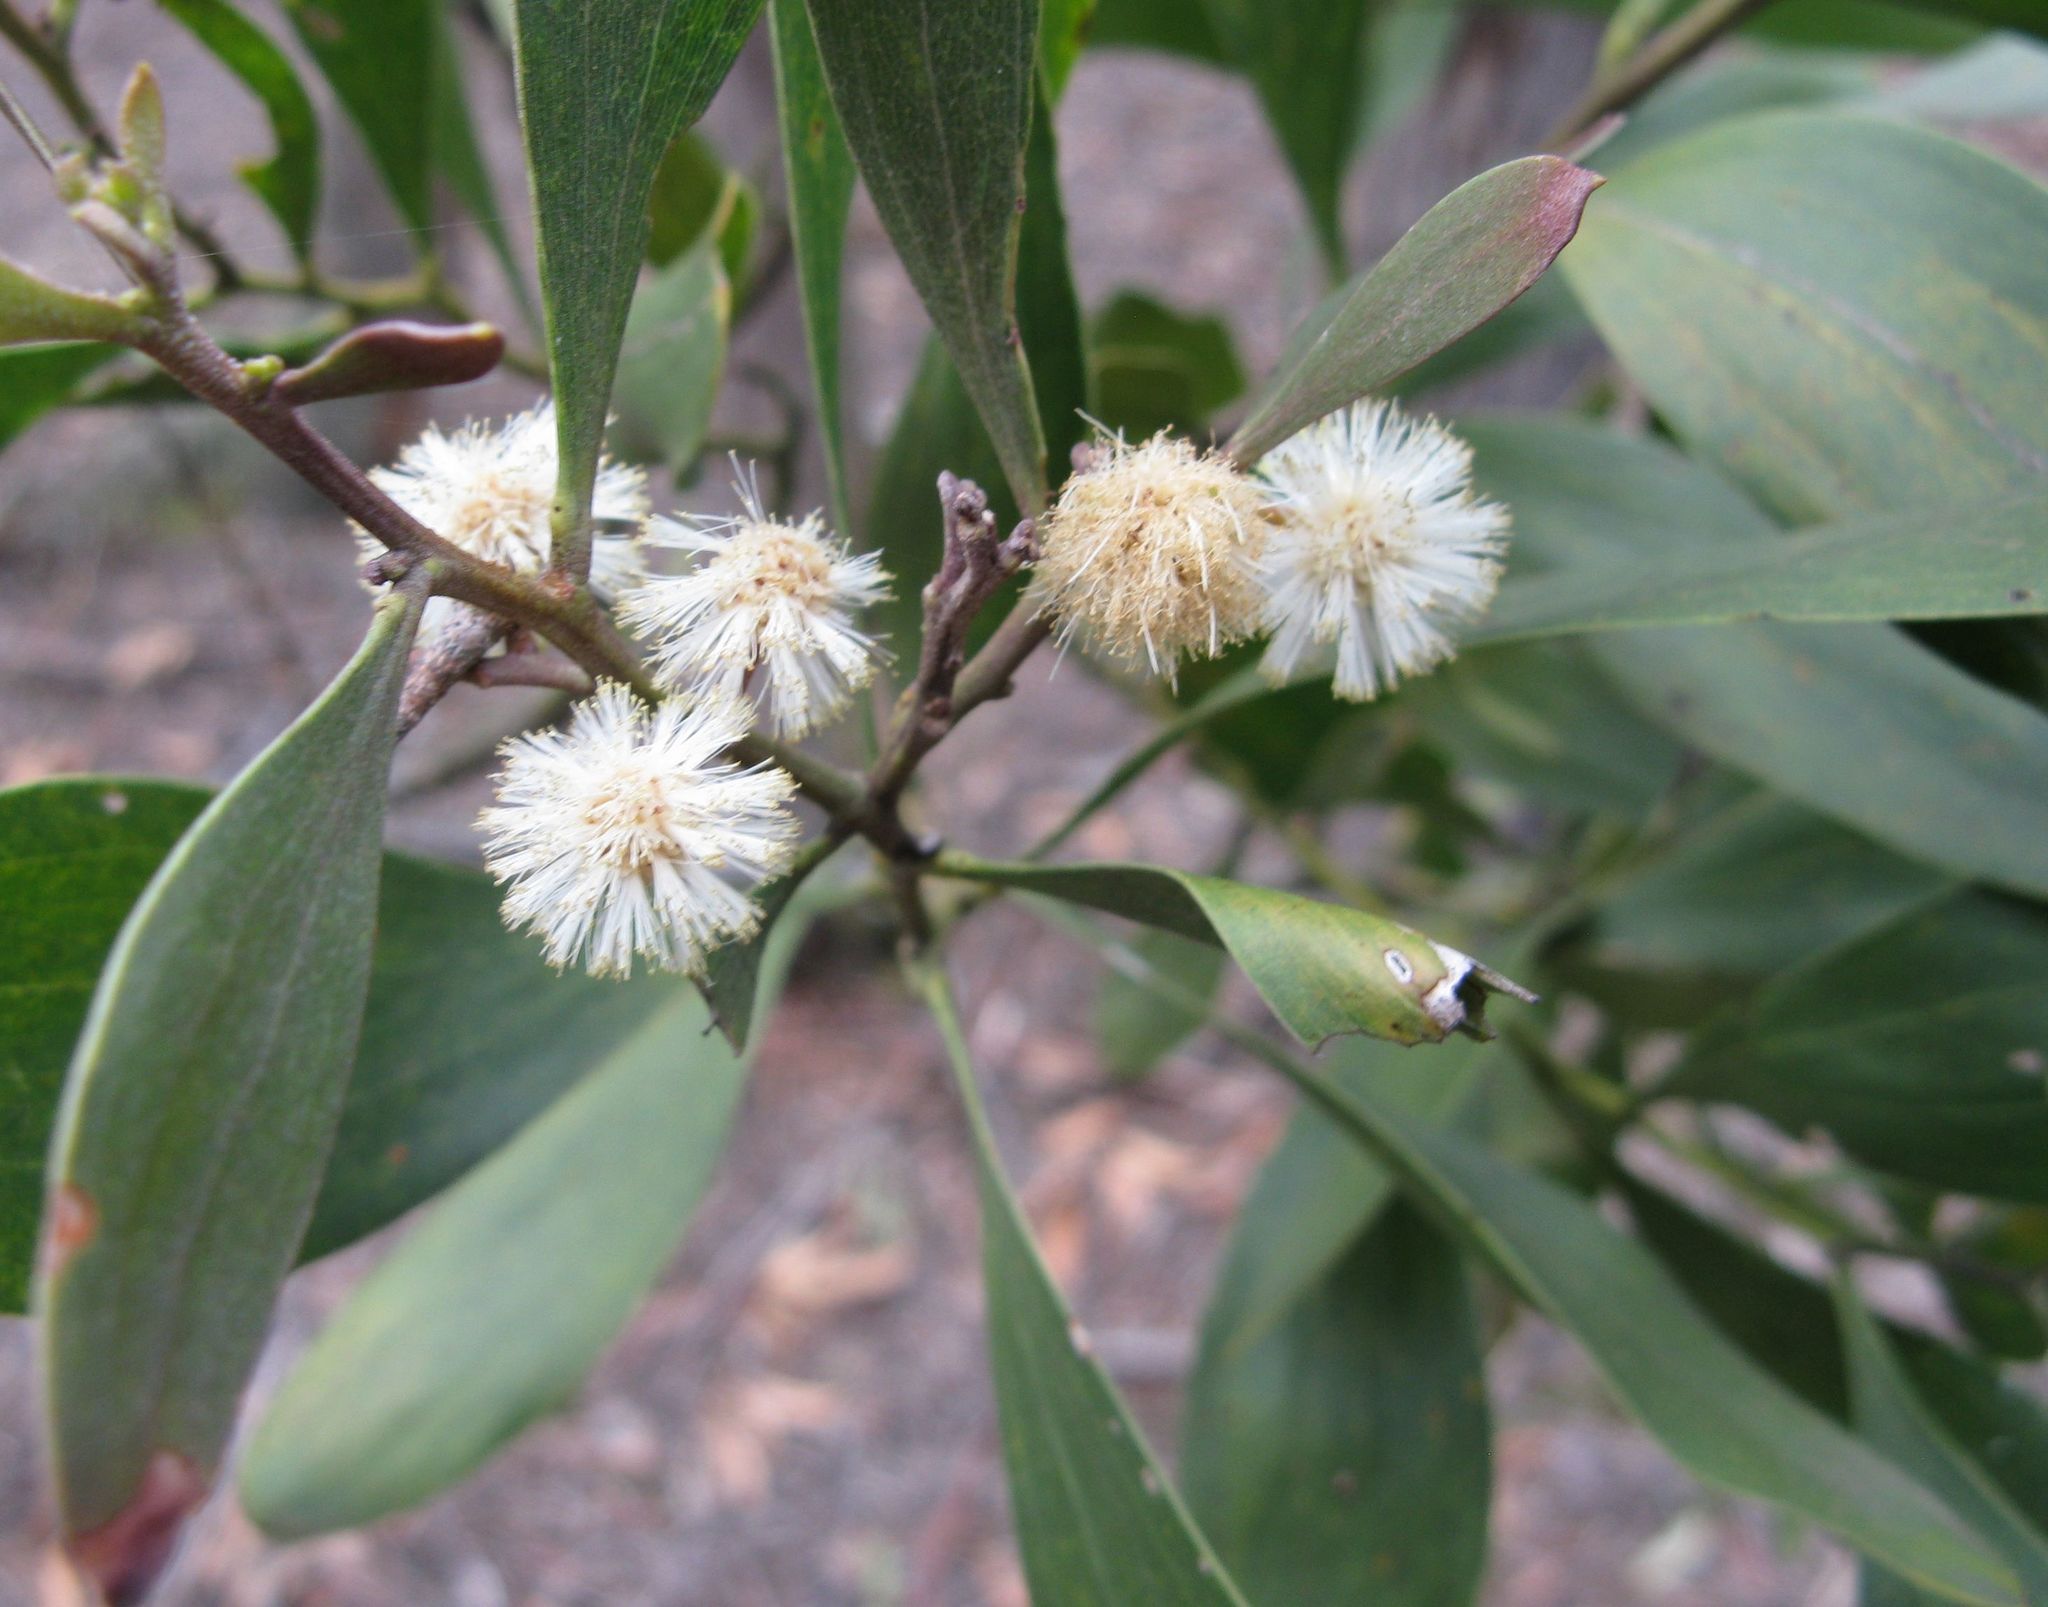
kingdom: Plantae
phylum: Tracheophyta
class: Magnoliopsida
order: Fabales
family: Fabaceae
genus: Acacia
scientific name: Acacia melanoxylon
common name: Blackwood
